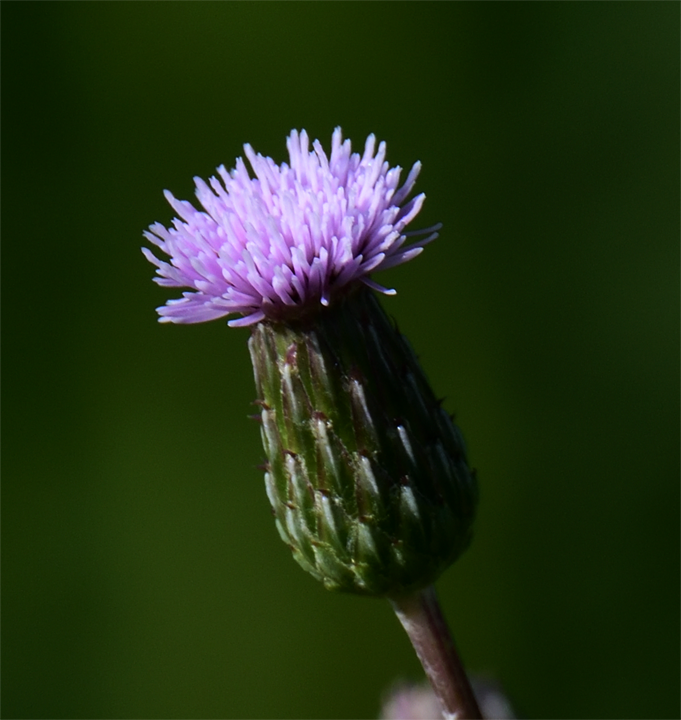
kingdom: Plantae
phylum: Tracheophyta
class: Magnoliopsida
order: Asterales
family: Asteraceae
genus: Cirsium
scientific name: Cirsium arvense
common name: Creeping thistle
